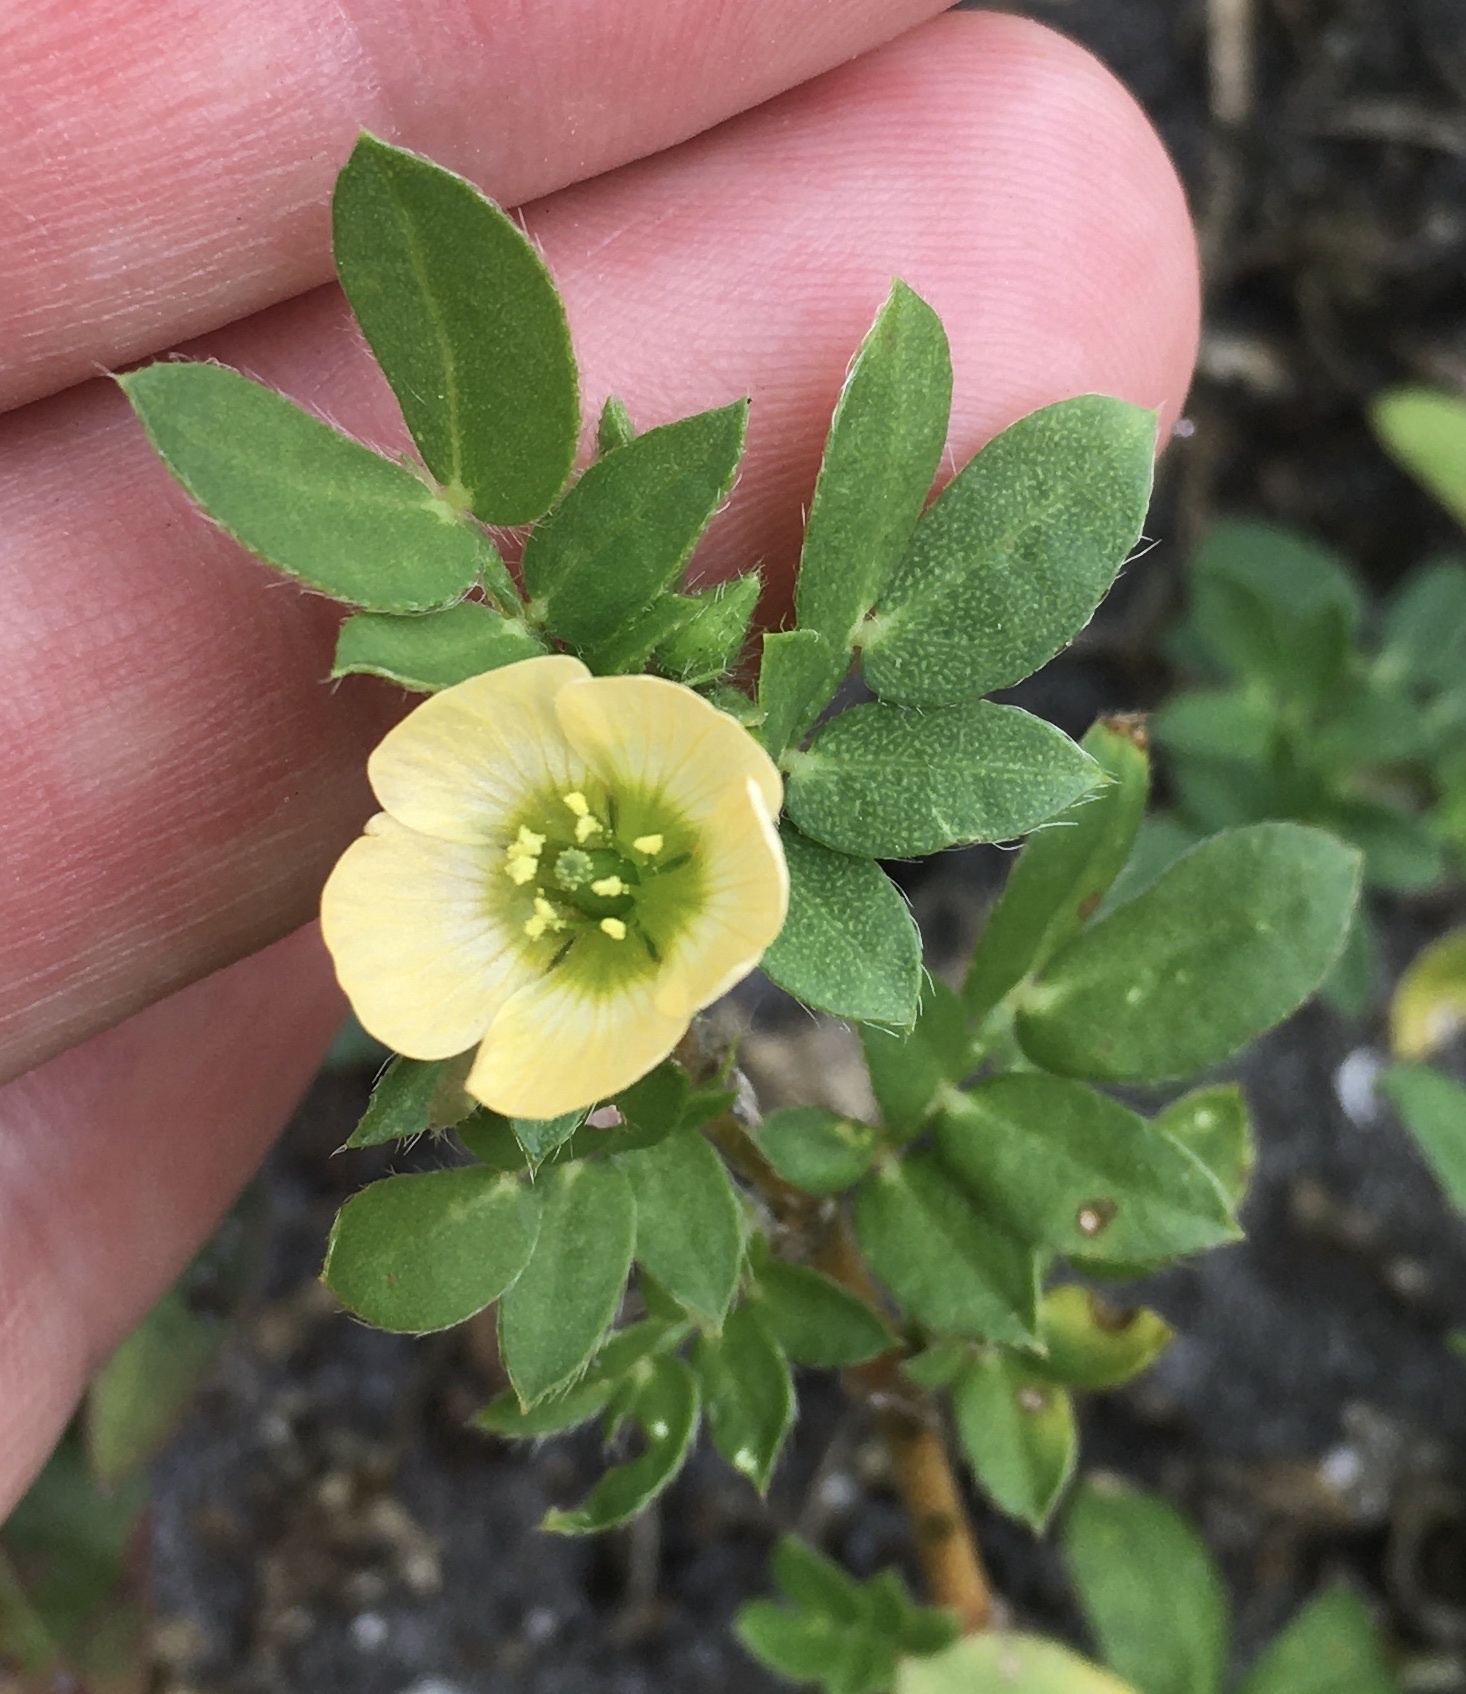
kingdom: Plantae
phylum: Tracheophyta
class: Magnoliopsida
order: Zygophyllales
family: Zygophyllaceae
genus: Kallstroemia
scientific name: Kallstroemia maxima
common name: Big caltropa
